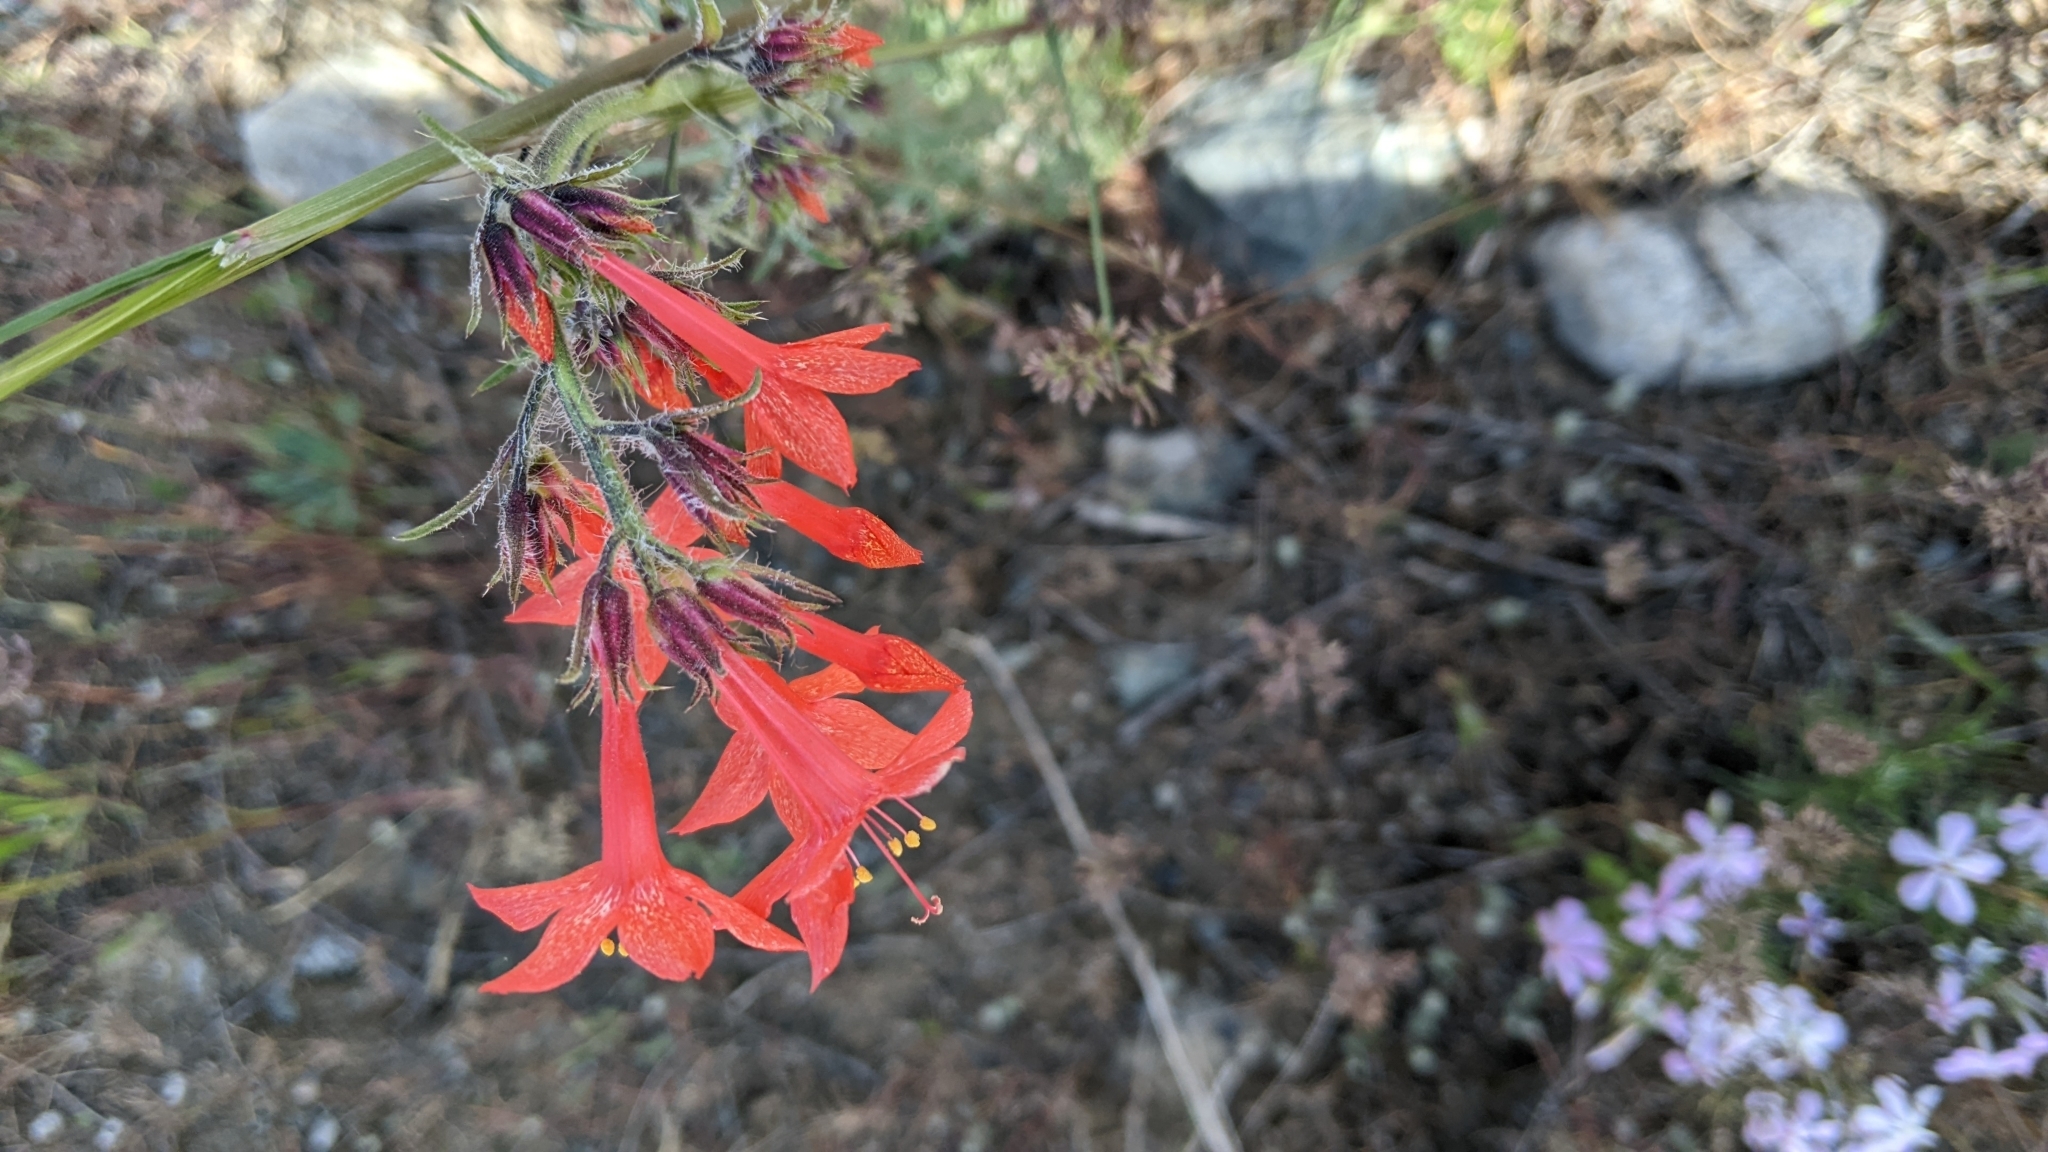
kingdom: Plantae
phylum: Tracheophyta
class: Magnoliopsida
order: Ericales
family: Polemoniaceae
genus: Ipomopsis
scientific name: Ipomopsis aggregata
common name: Scarlet gilia
